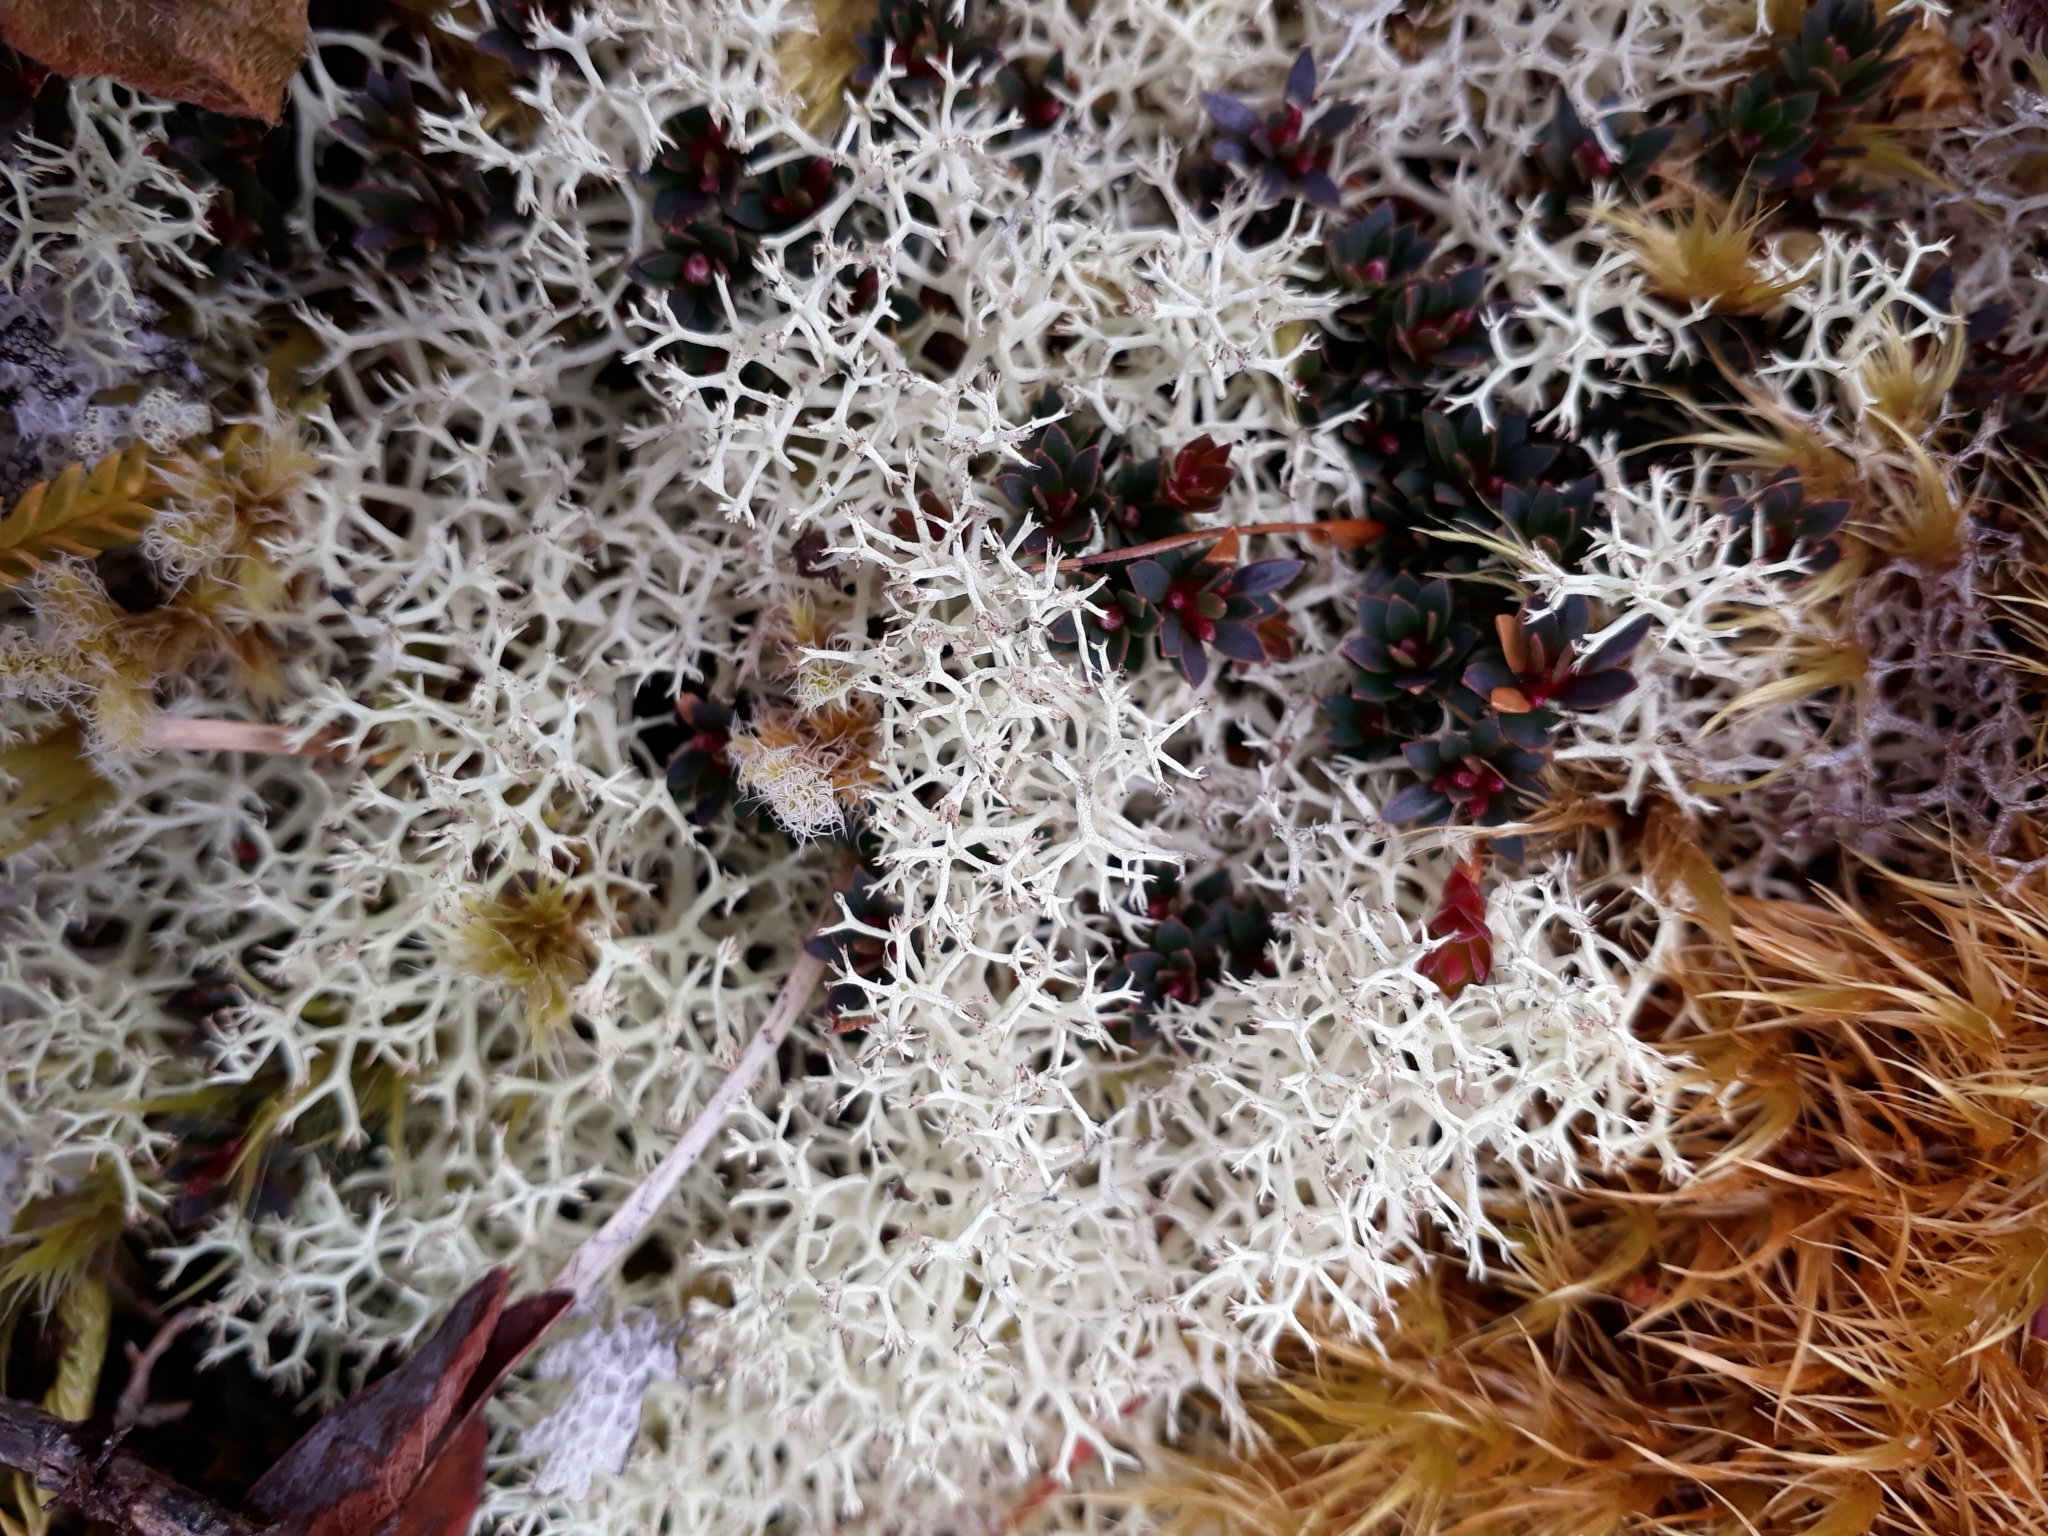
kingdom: Fungi
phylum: Ascomycota
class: Lecanoromycetes
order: Lecanorales
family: Cladoniaceae
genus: Cladonia
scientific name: Cladonia confusa
